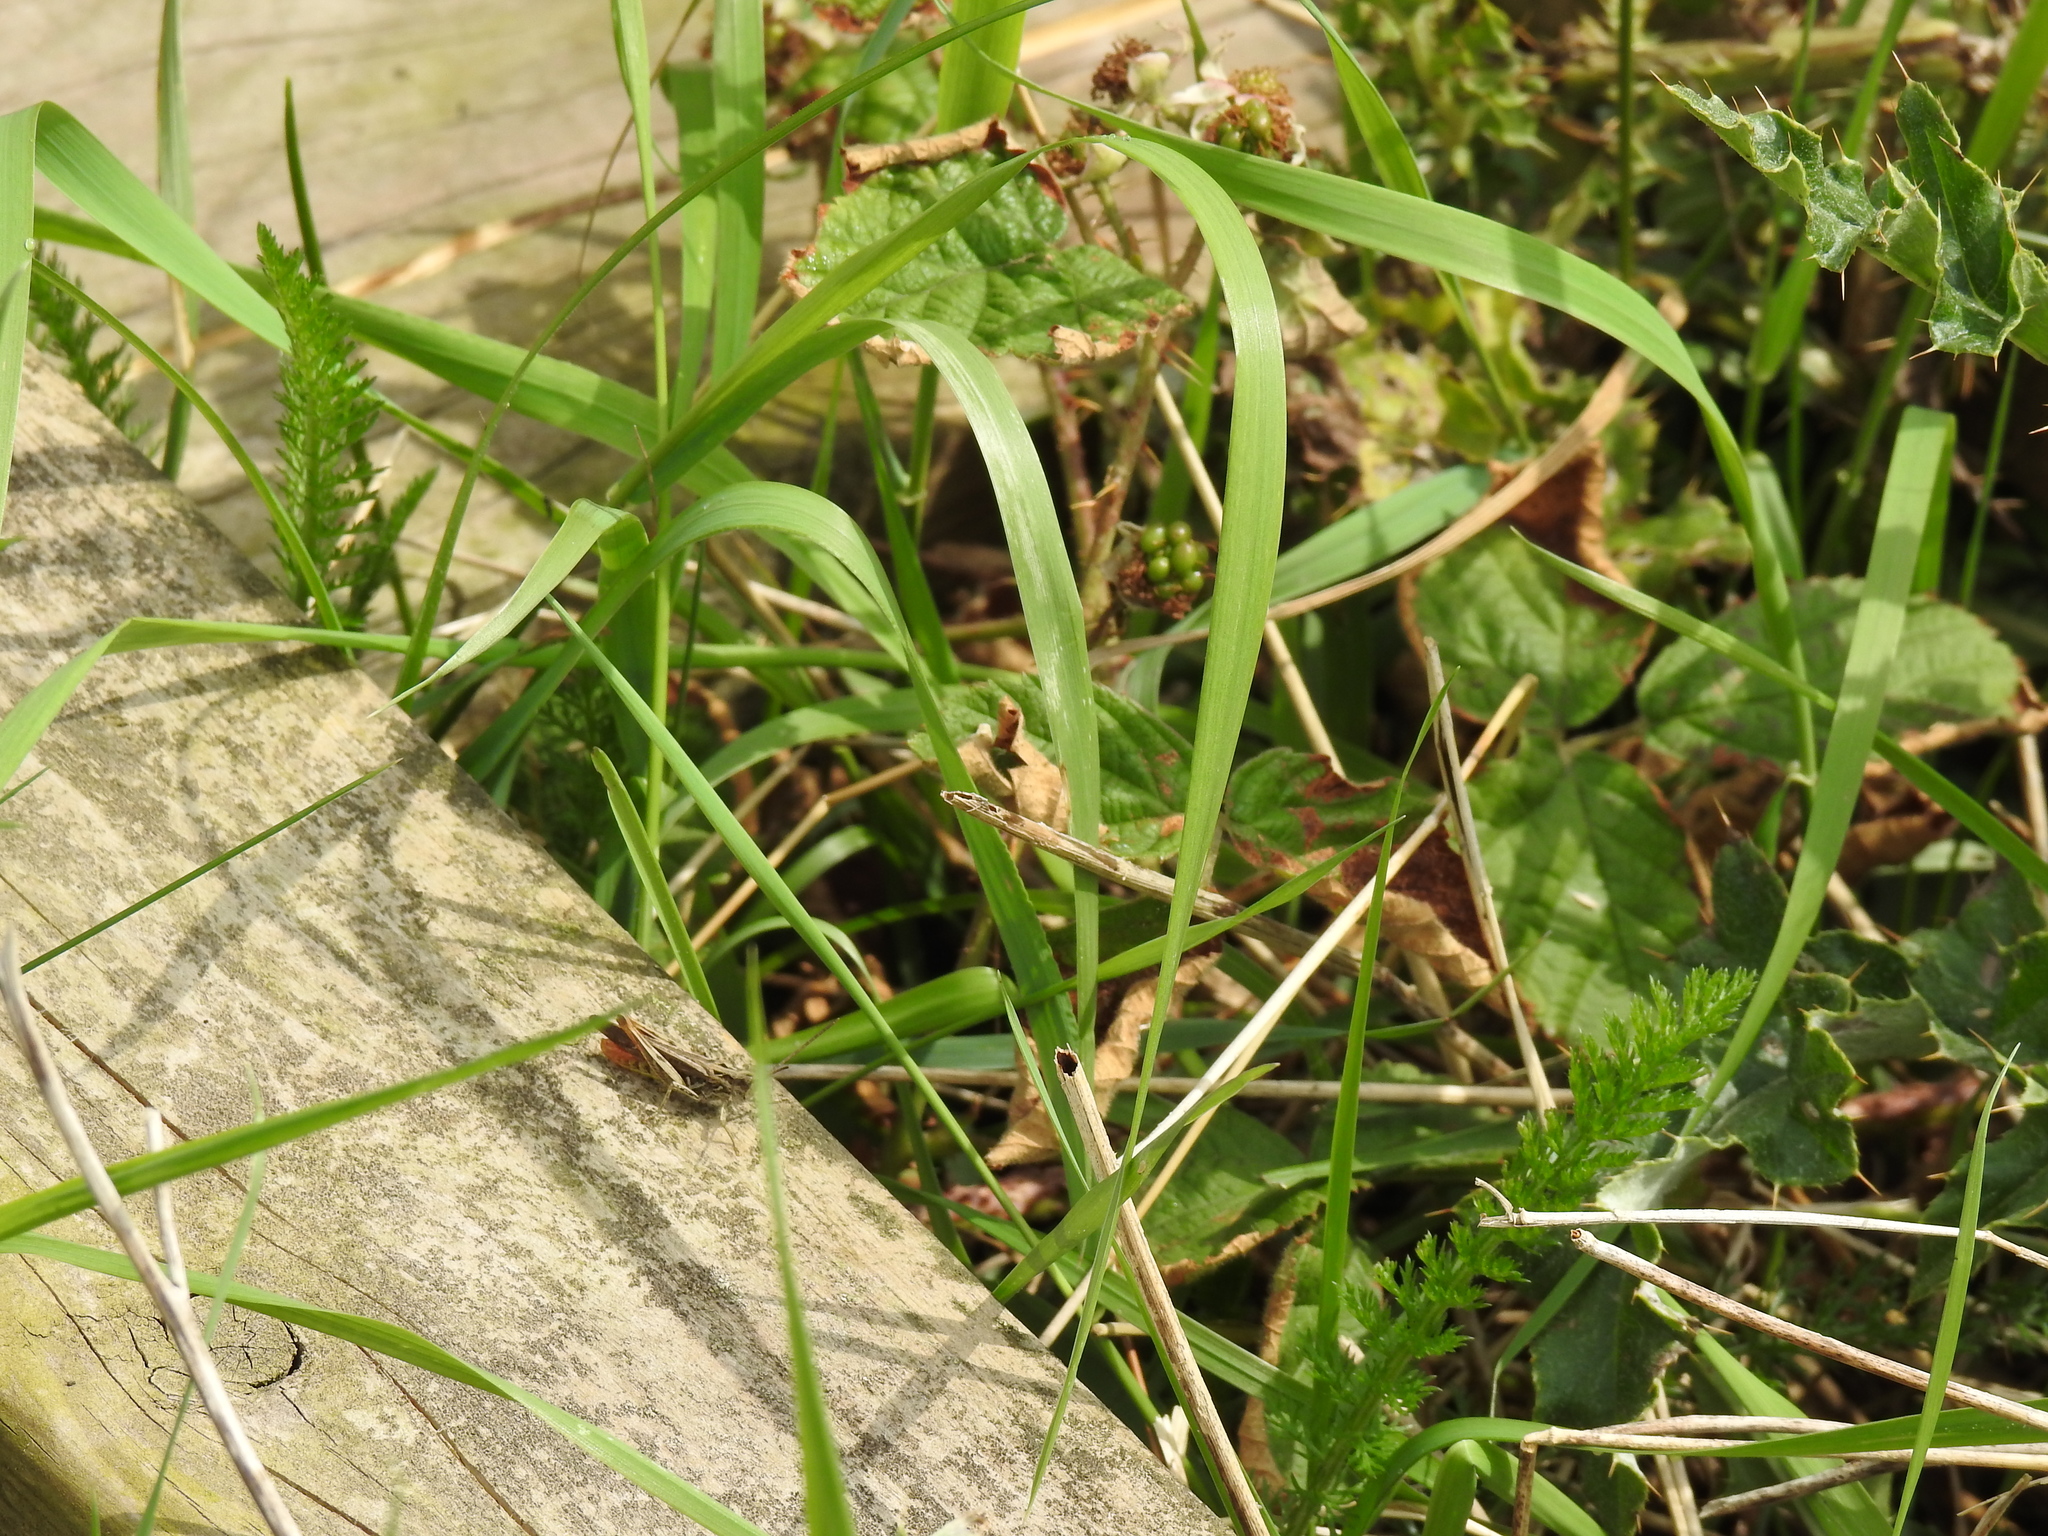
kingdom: Animalia
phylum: Arthropoda
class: Insecta
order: Orthoptera
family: Acrididae
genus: Chorthippus
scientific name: Chorthippus brunneus
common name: Field grasshopper
